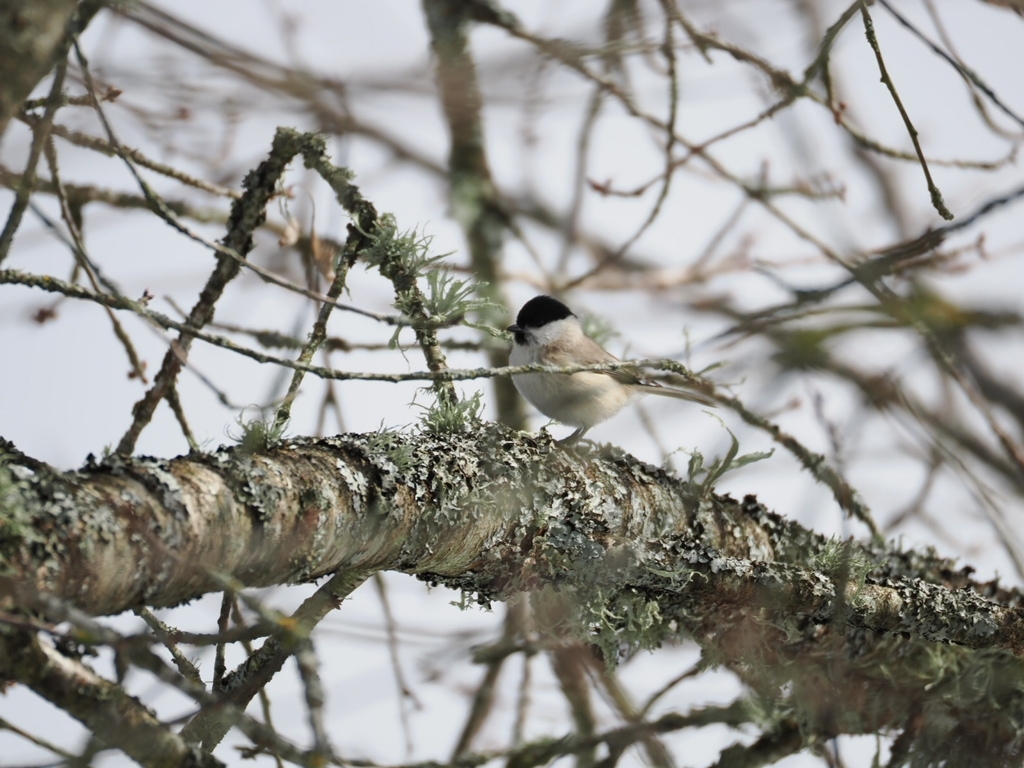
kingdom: Animalia
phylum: Chordata
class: Aves
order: Passeriformes
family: Paridae
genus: Poecile
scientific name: Poecile palustris
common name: Marsh tit
